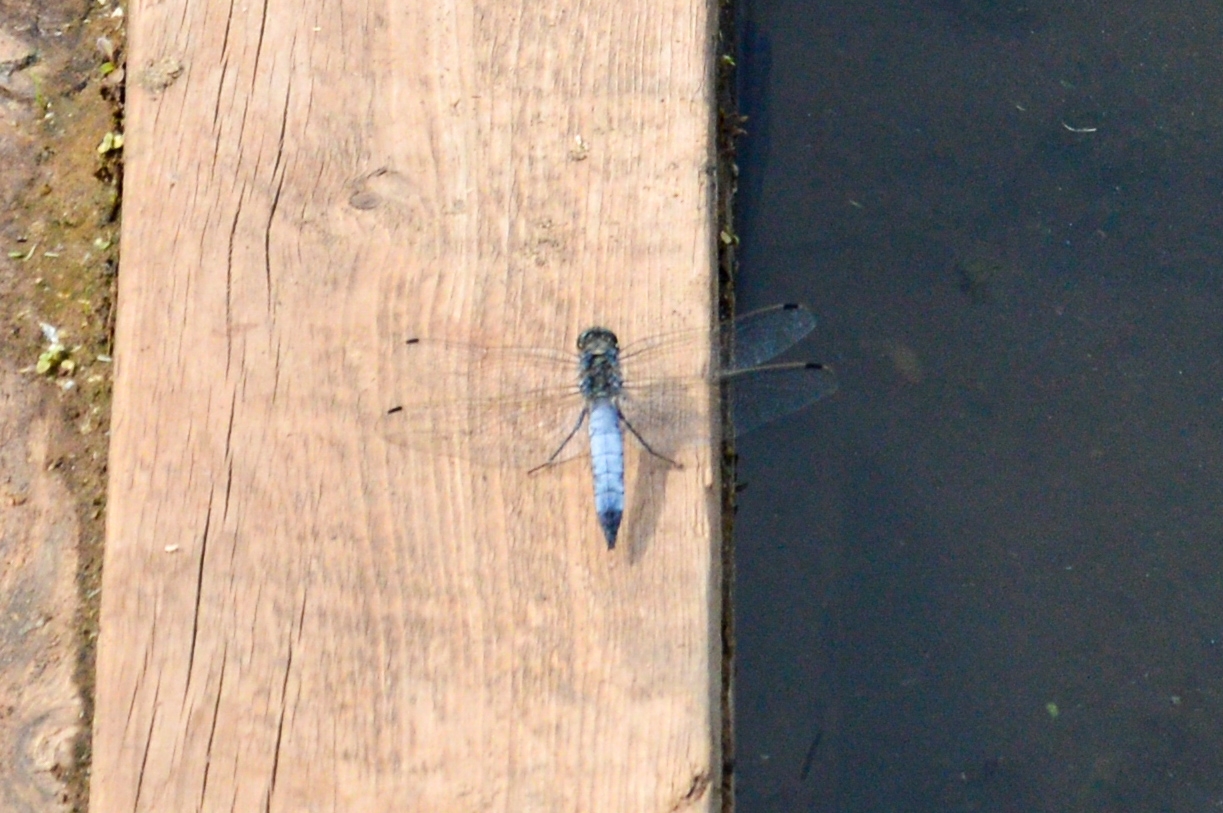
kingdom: Animalia
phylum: Arthropoda
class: Insecta
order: Odonata
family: Libellulidae
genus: Orthetrum
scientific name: Orthetrum cancellatum
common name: Black-tailed skimmer
